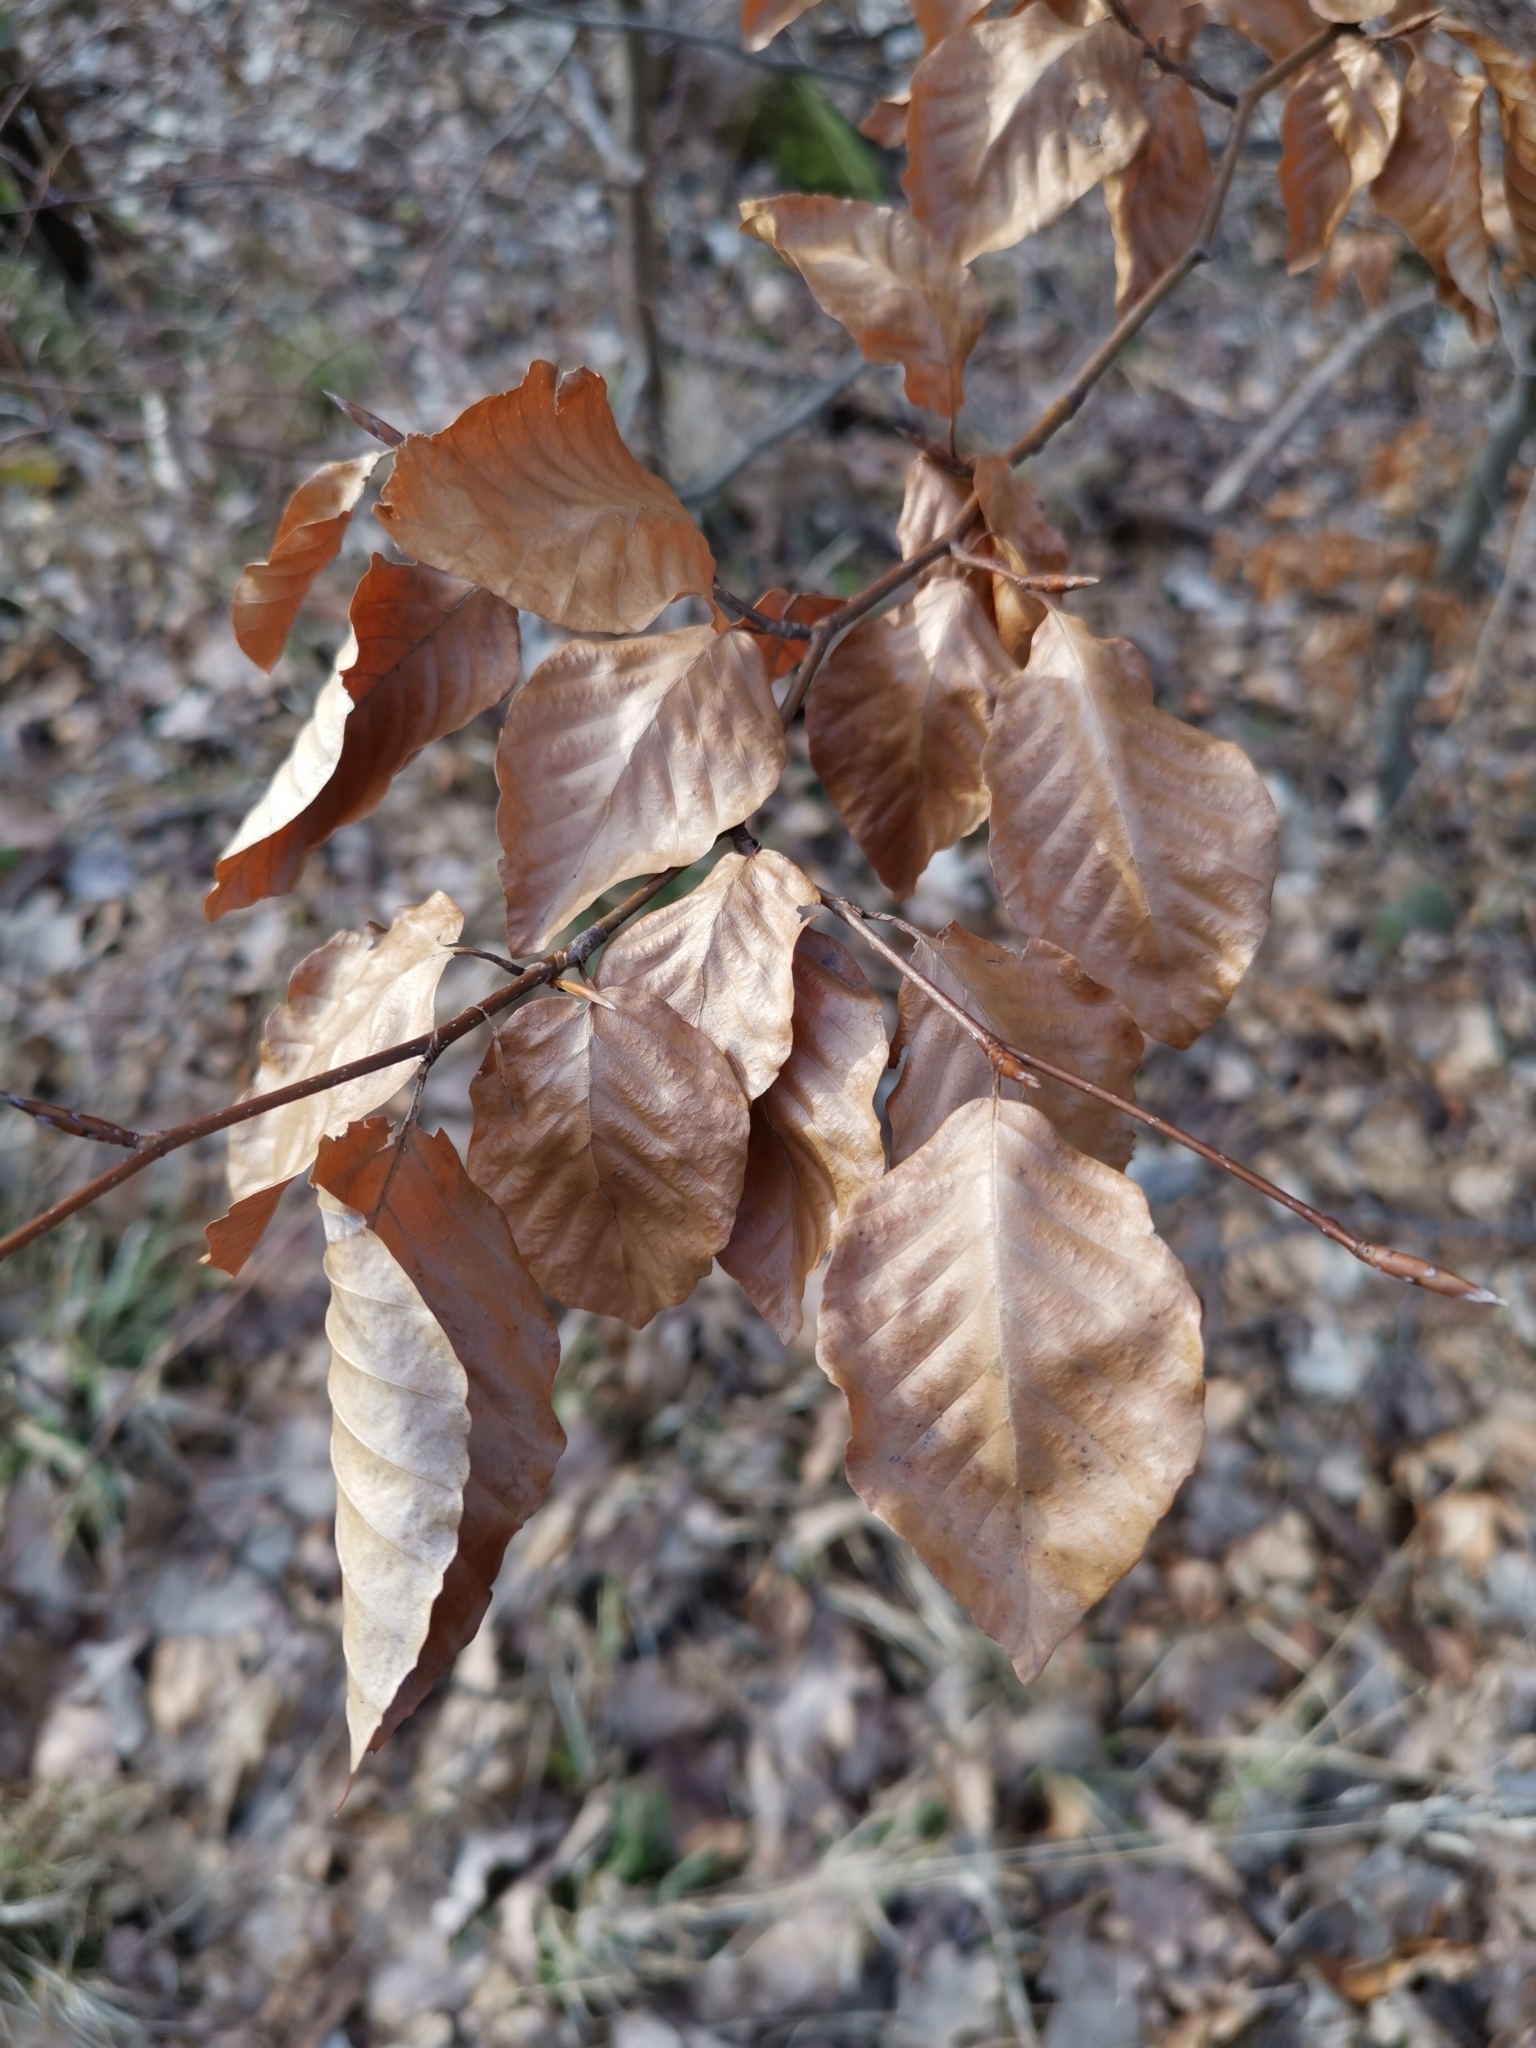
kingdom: Plantae
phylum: Tracheophyta
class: Magnoliopsida
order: Fagales
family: Fagaceae
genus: Fagus
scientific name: Fagus sylvatica
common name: Beech
